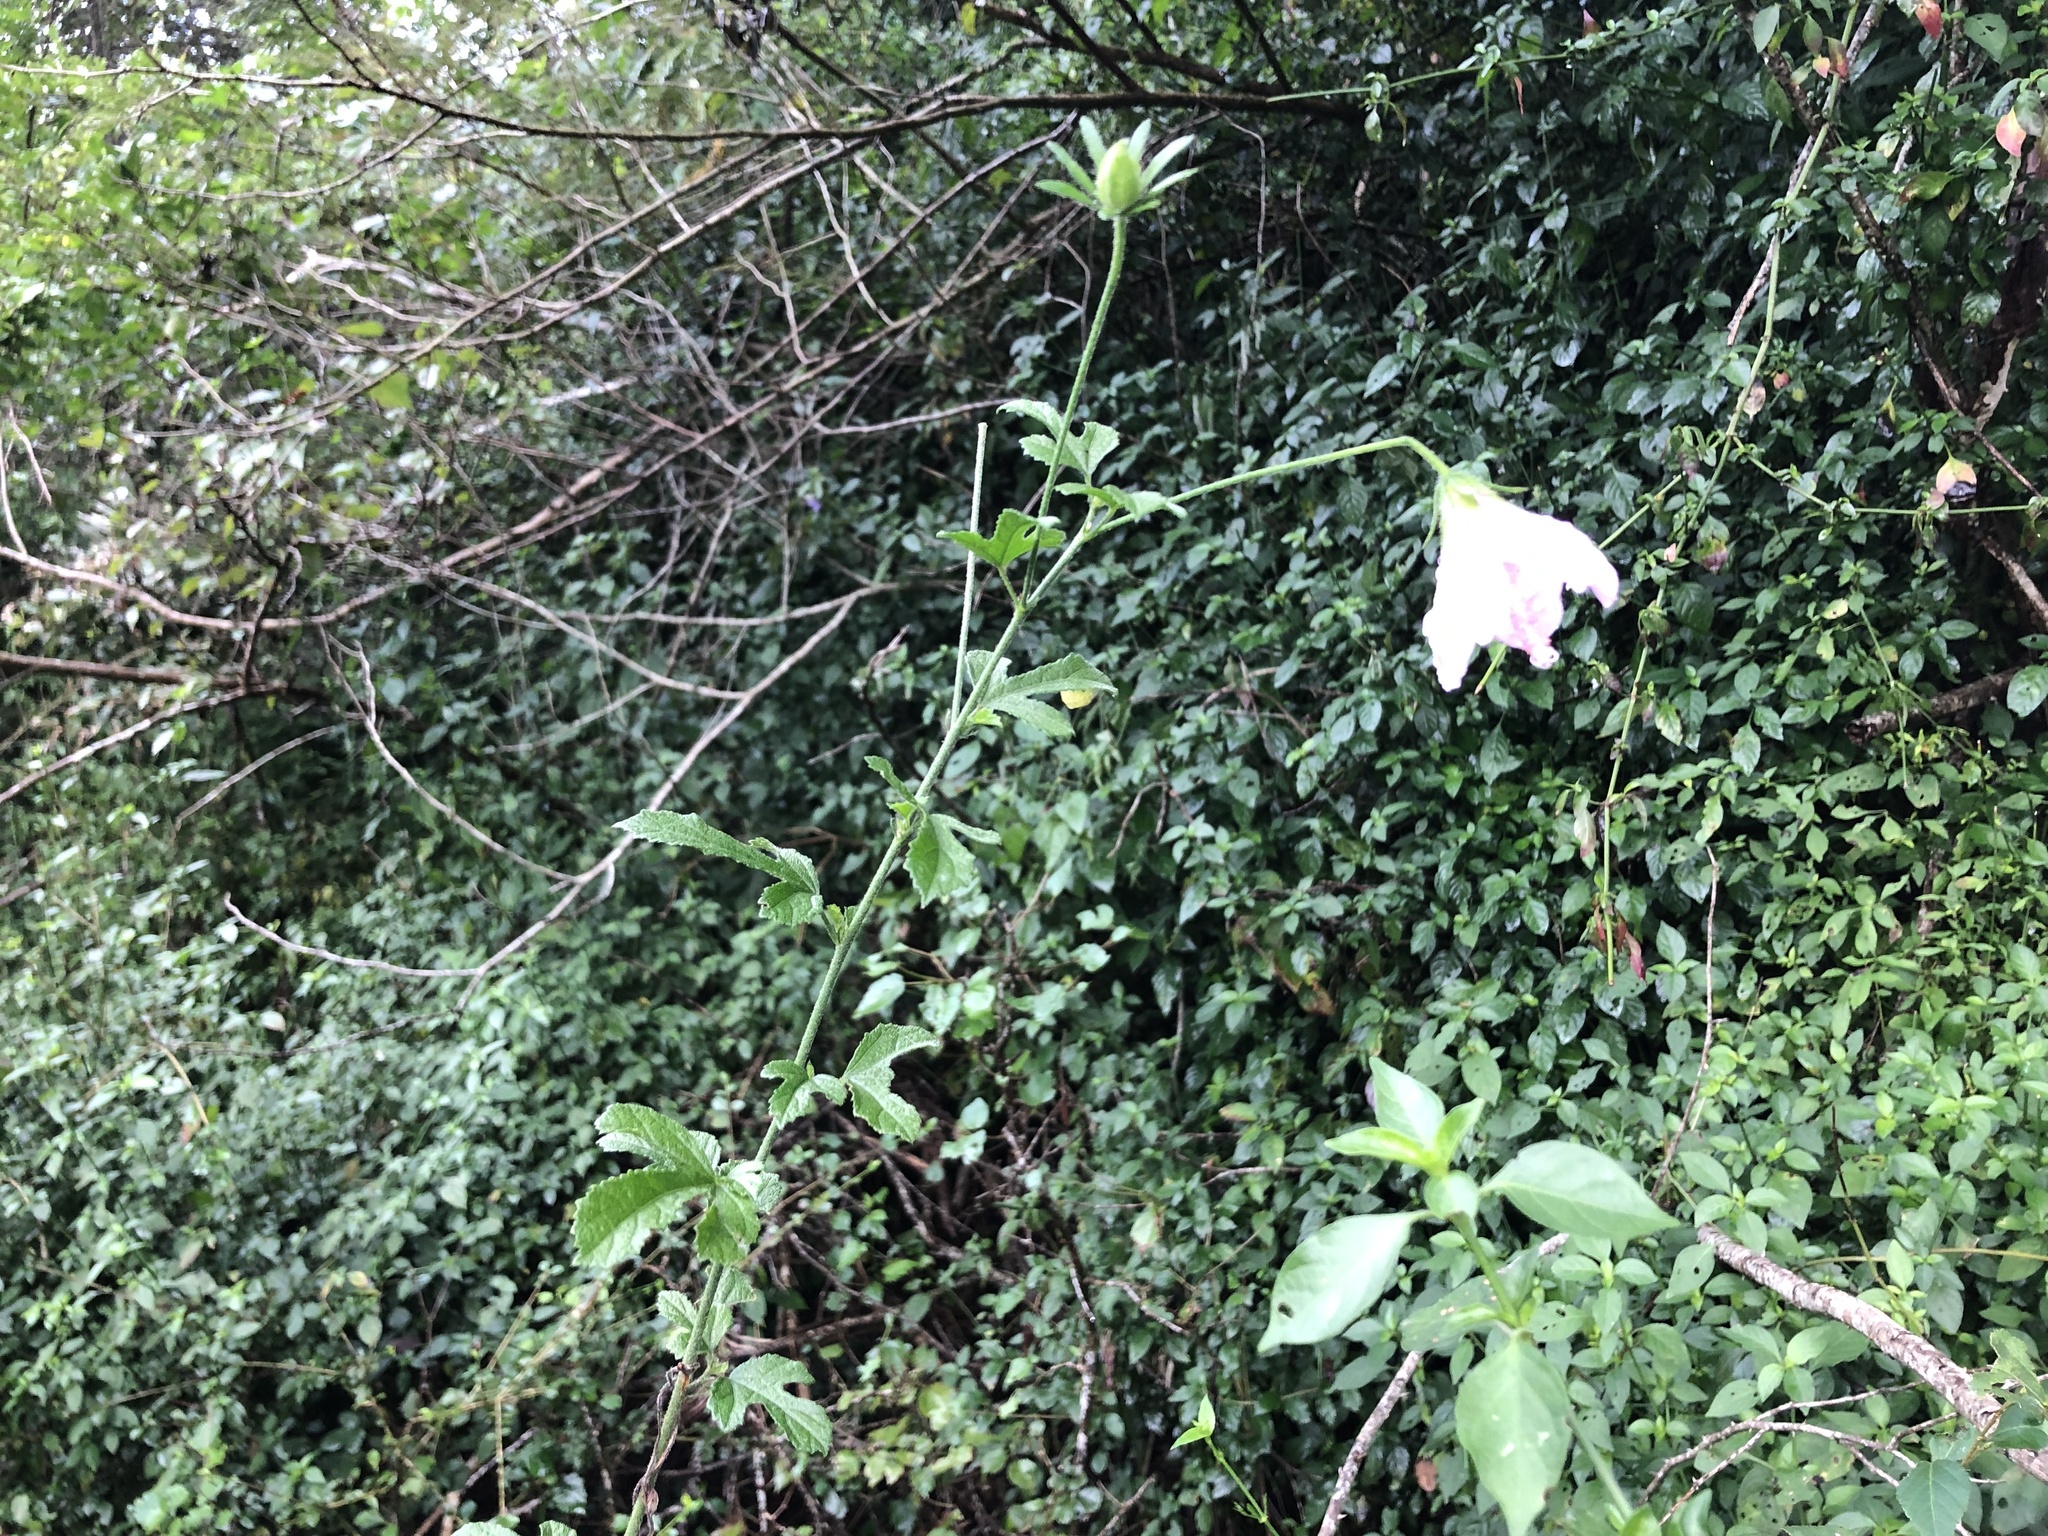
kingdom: Plantae
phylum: Tracheophyta
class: Magnoliopsida
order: Malvales
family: Malvaceae
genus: Hibiscus
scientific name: Hibiscus pedunculatus
